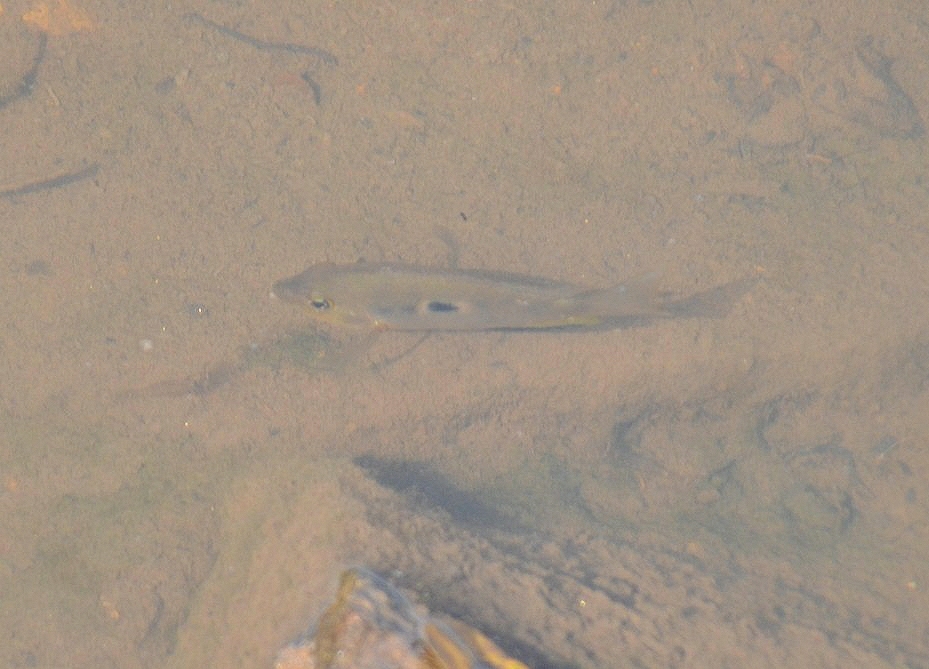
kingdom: Animalia
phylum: Chordata
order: Perciformes
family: Cichlidae
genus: Etroplus
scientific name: Etroplus maculatus
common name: Orange chromide
